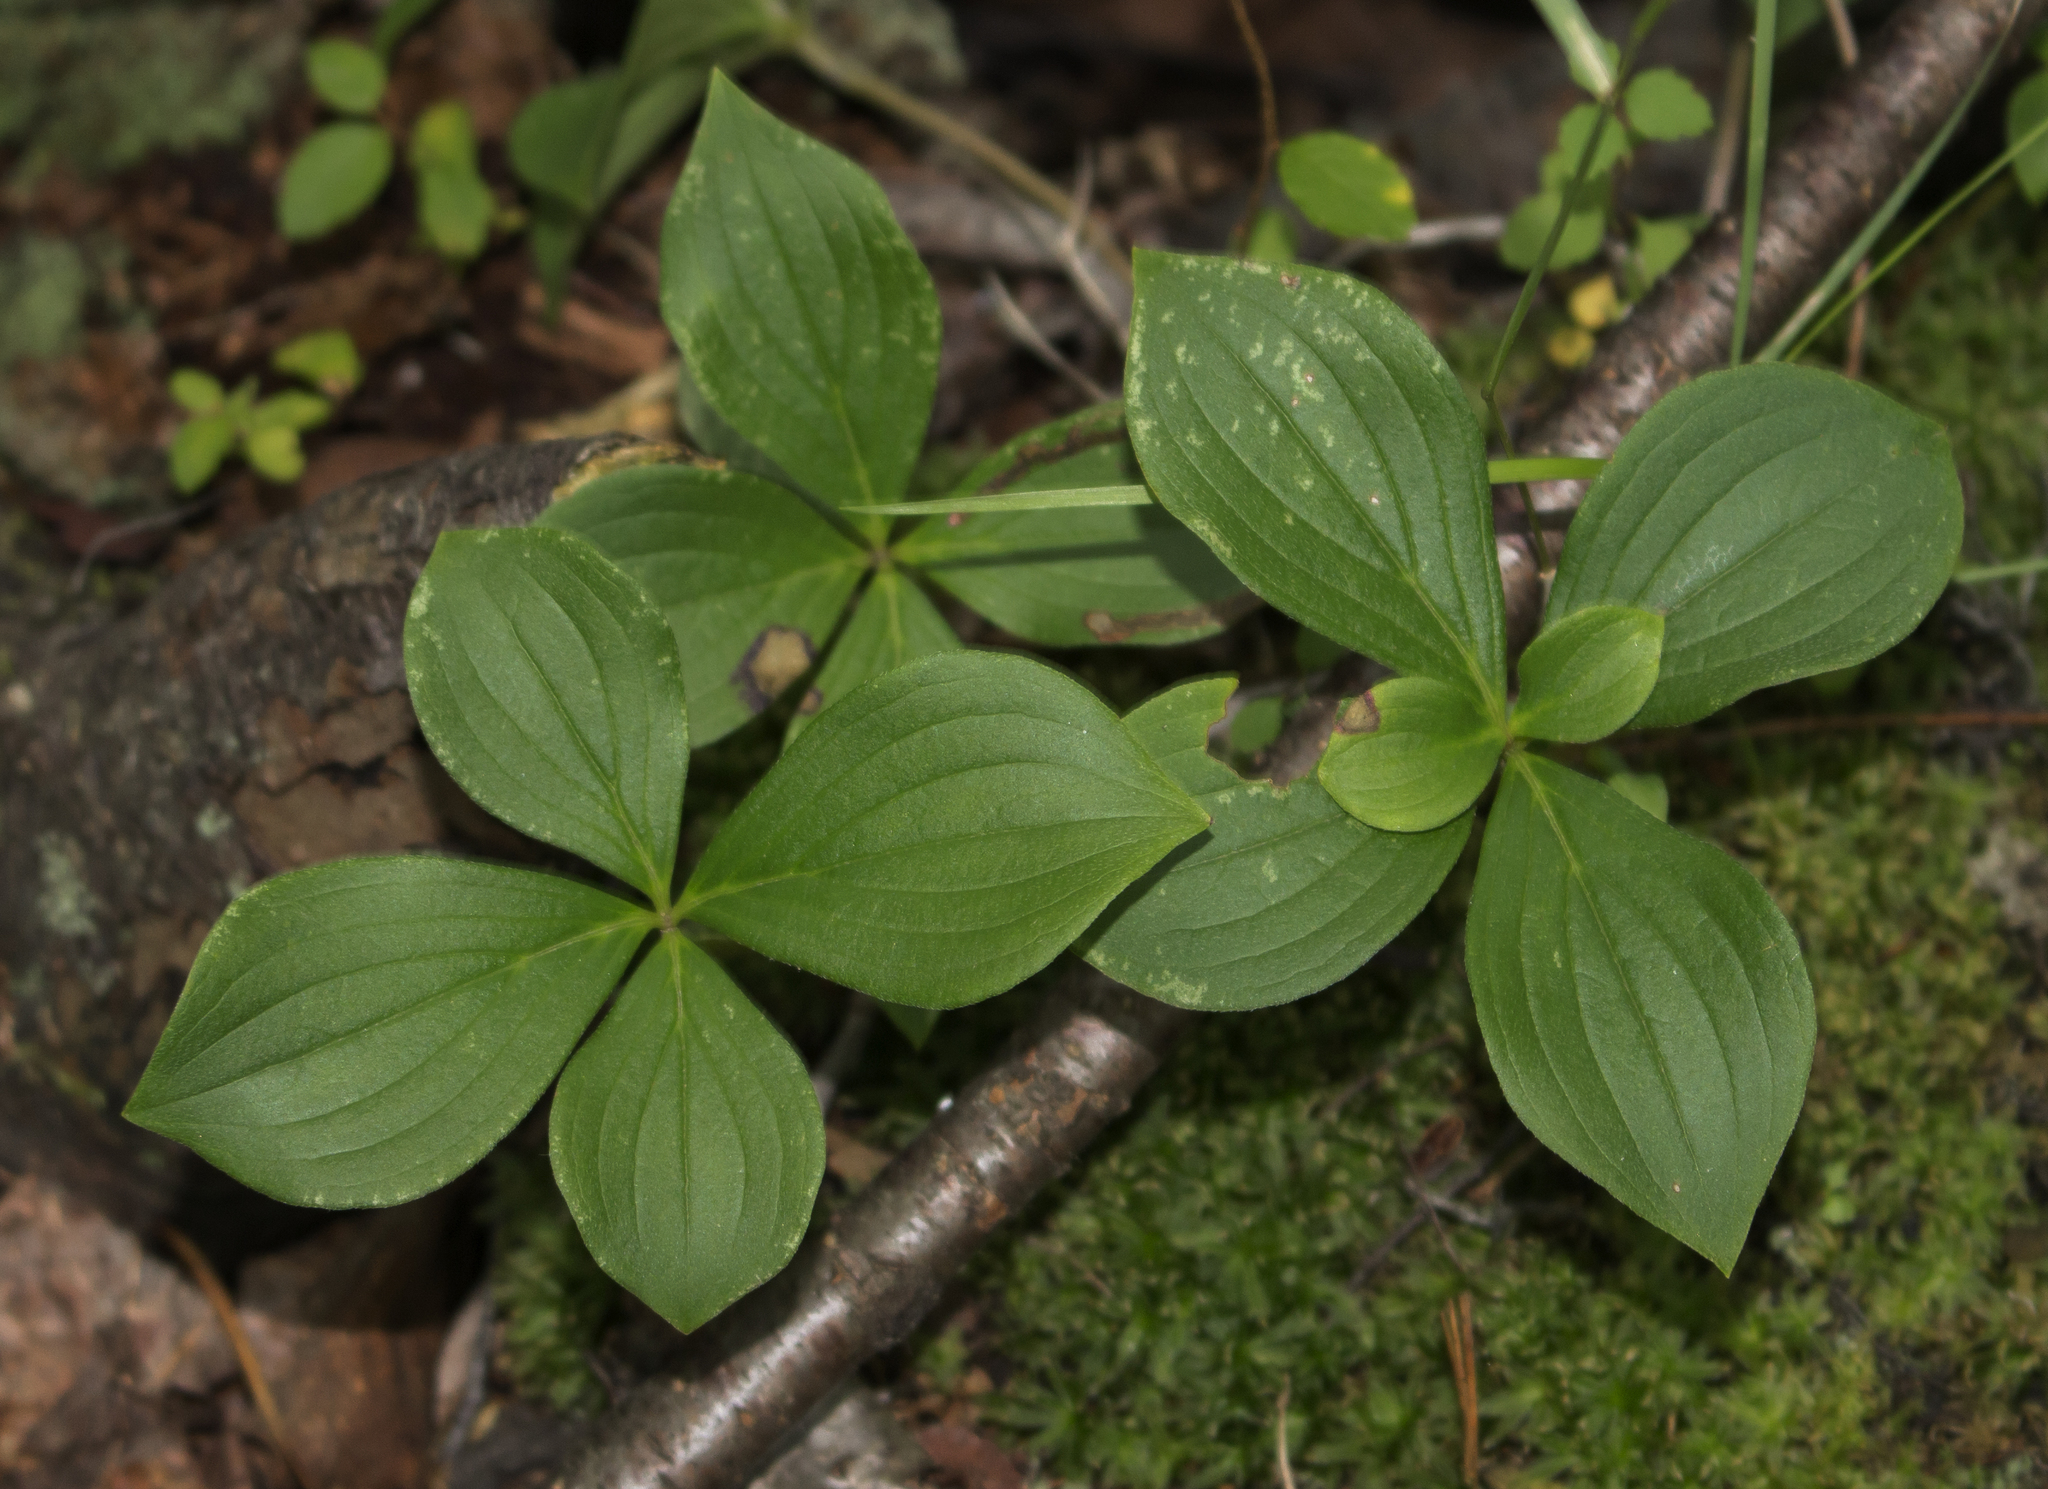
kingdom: Plantae
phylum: Tracheophyta
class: Magnoliopsida
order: Cornales
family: Cornaceae
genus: Cornus
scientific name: Cornus canadensis
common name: Creeping dogwood
